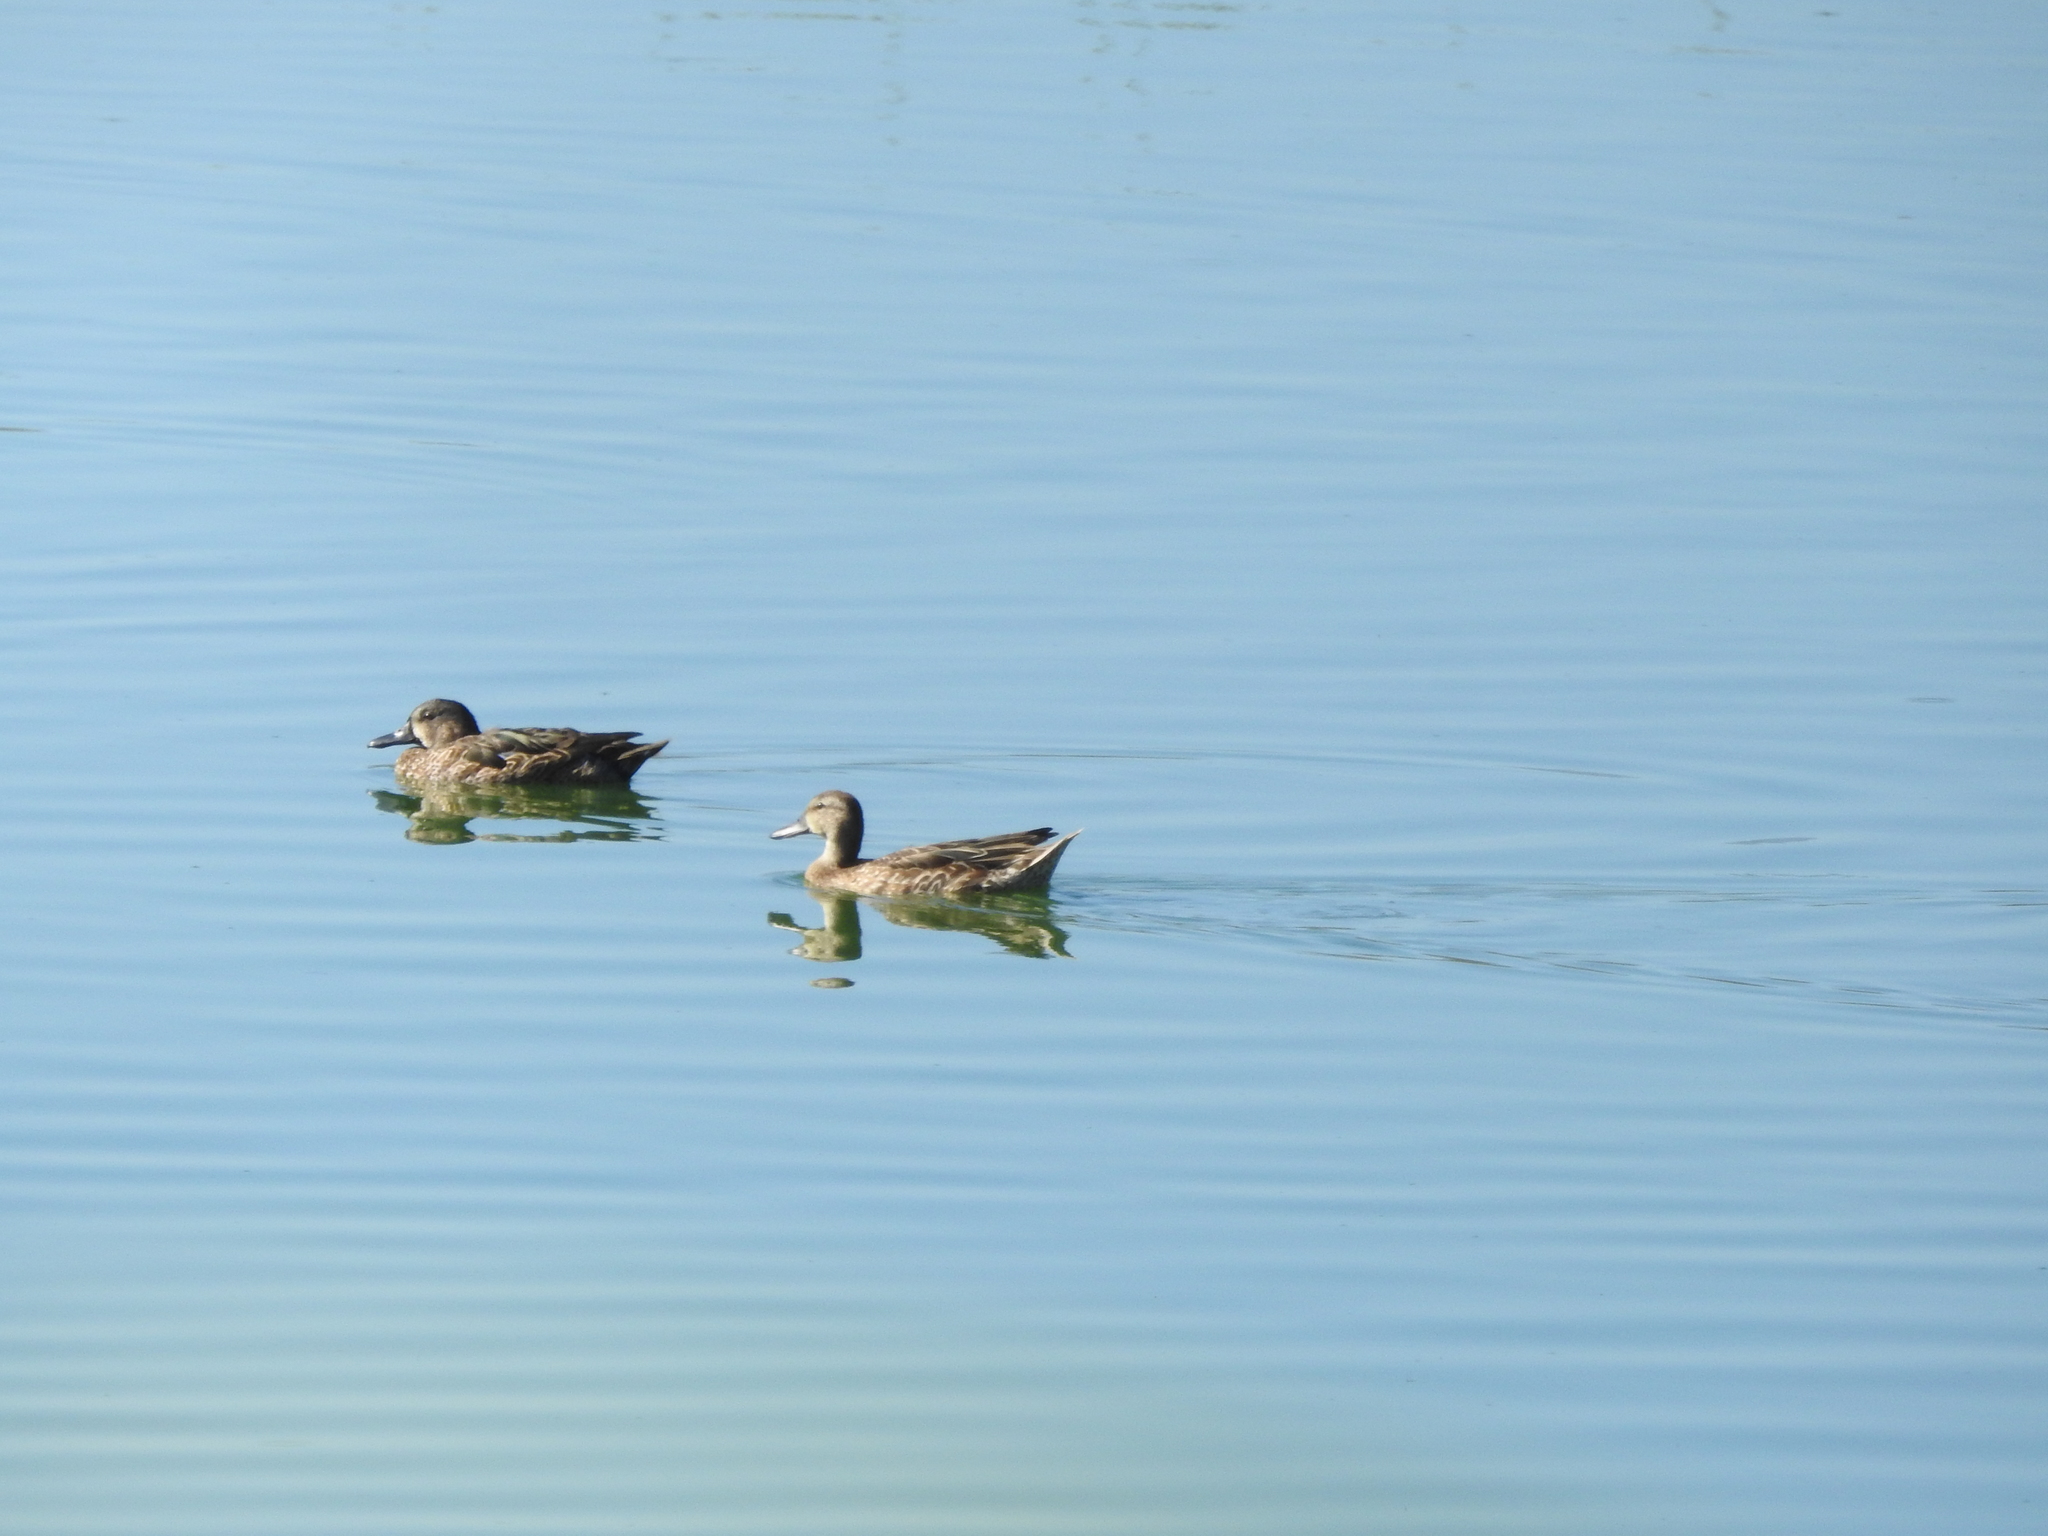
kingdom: Animalia
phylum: Chordata
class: Aves
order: Anseriformes
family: Anatidae
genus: Spatula
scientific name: Spatula discors
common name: Blue-winged teal
